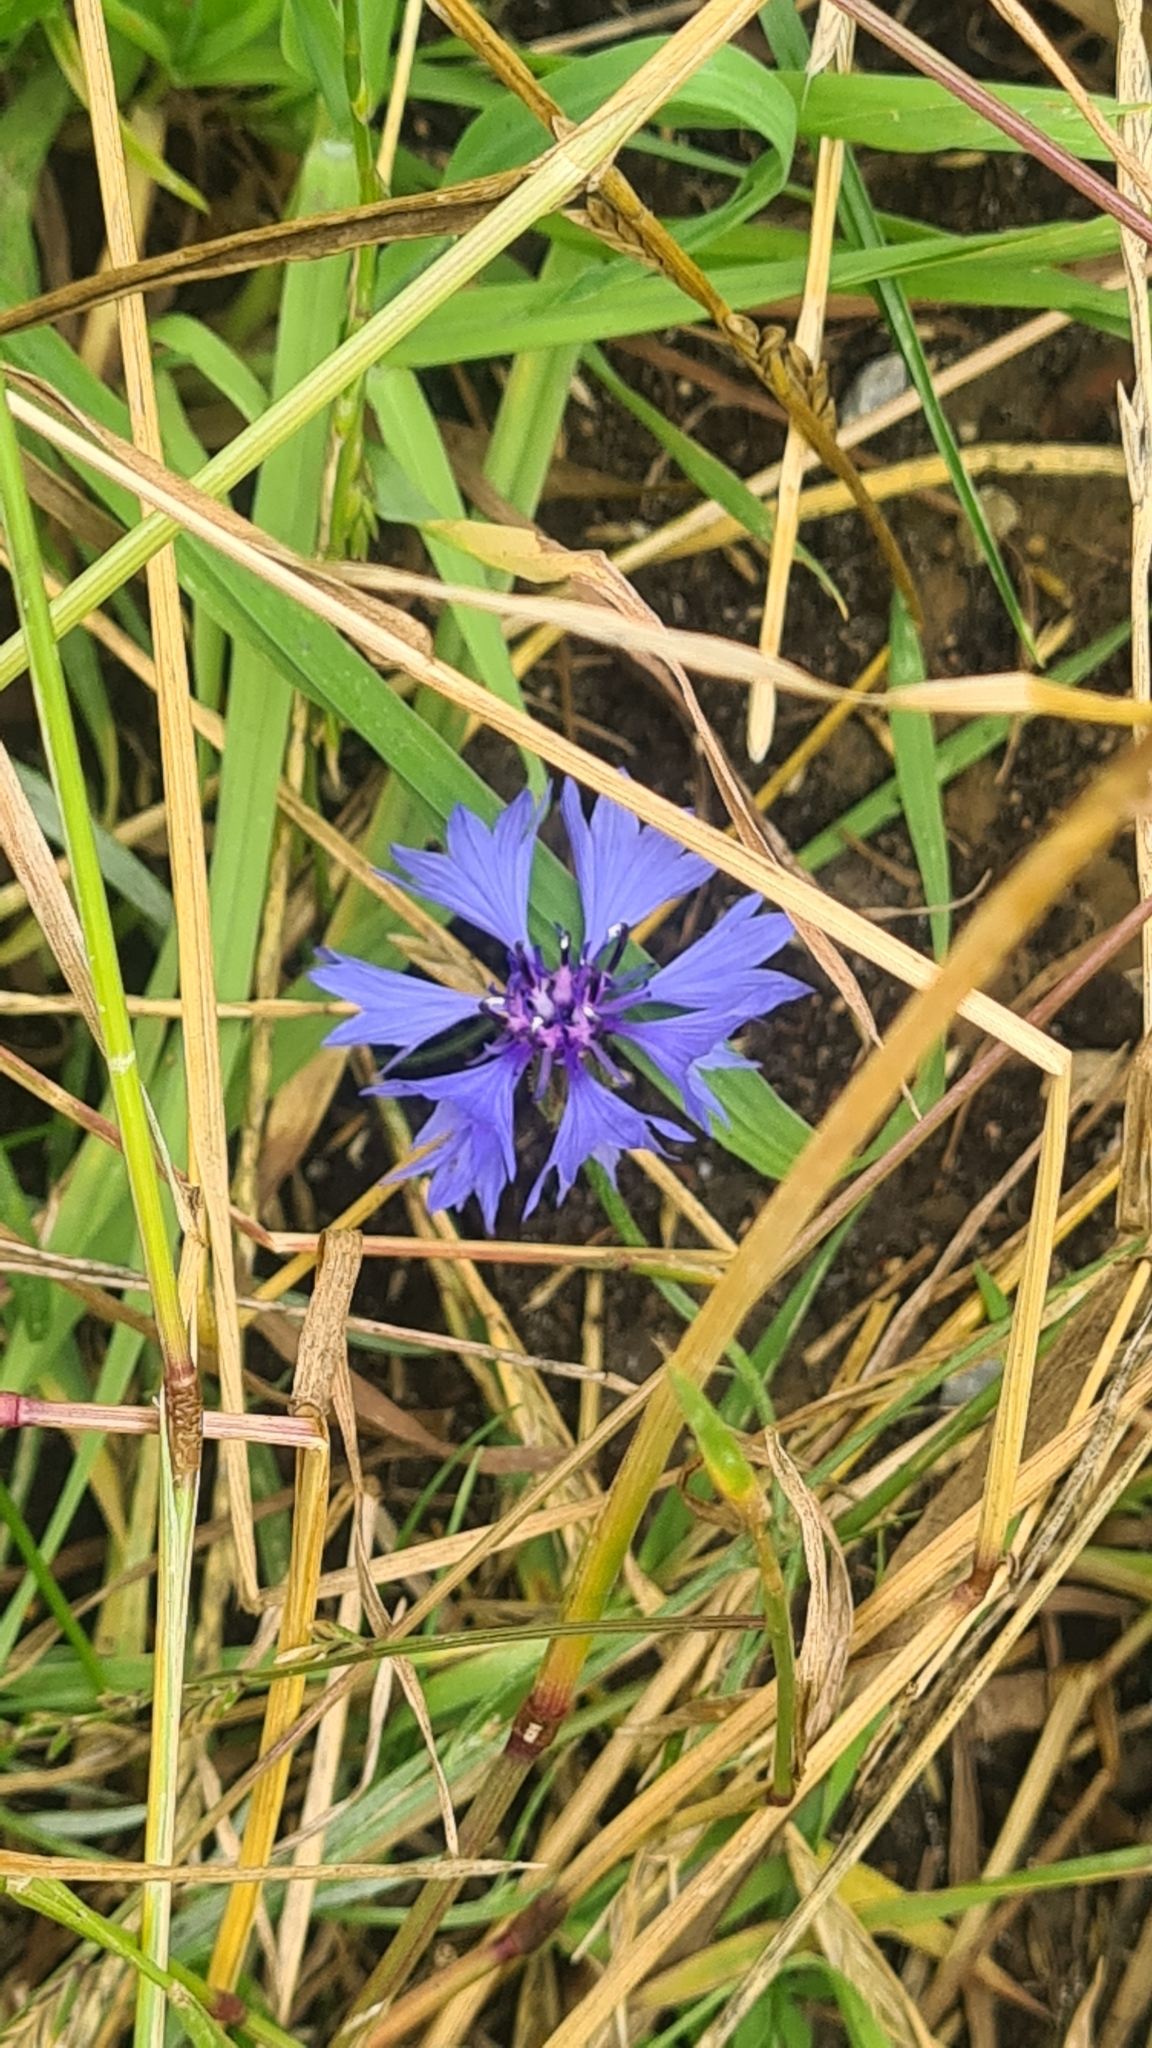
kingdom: Plantae
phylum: Tracheophyta
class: Magnoliopsida
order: Asterales
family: Asteraceae
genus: Centaurea
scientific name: Centaurea cyanus
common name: Cornflower
